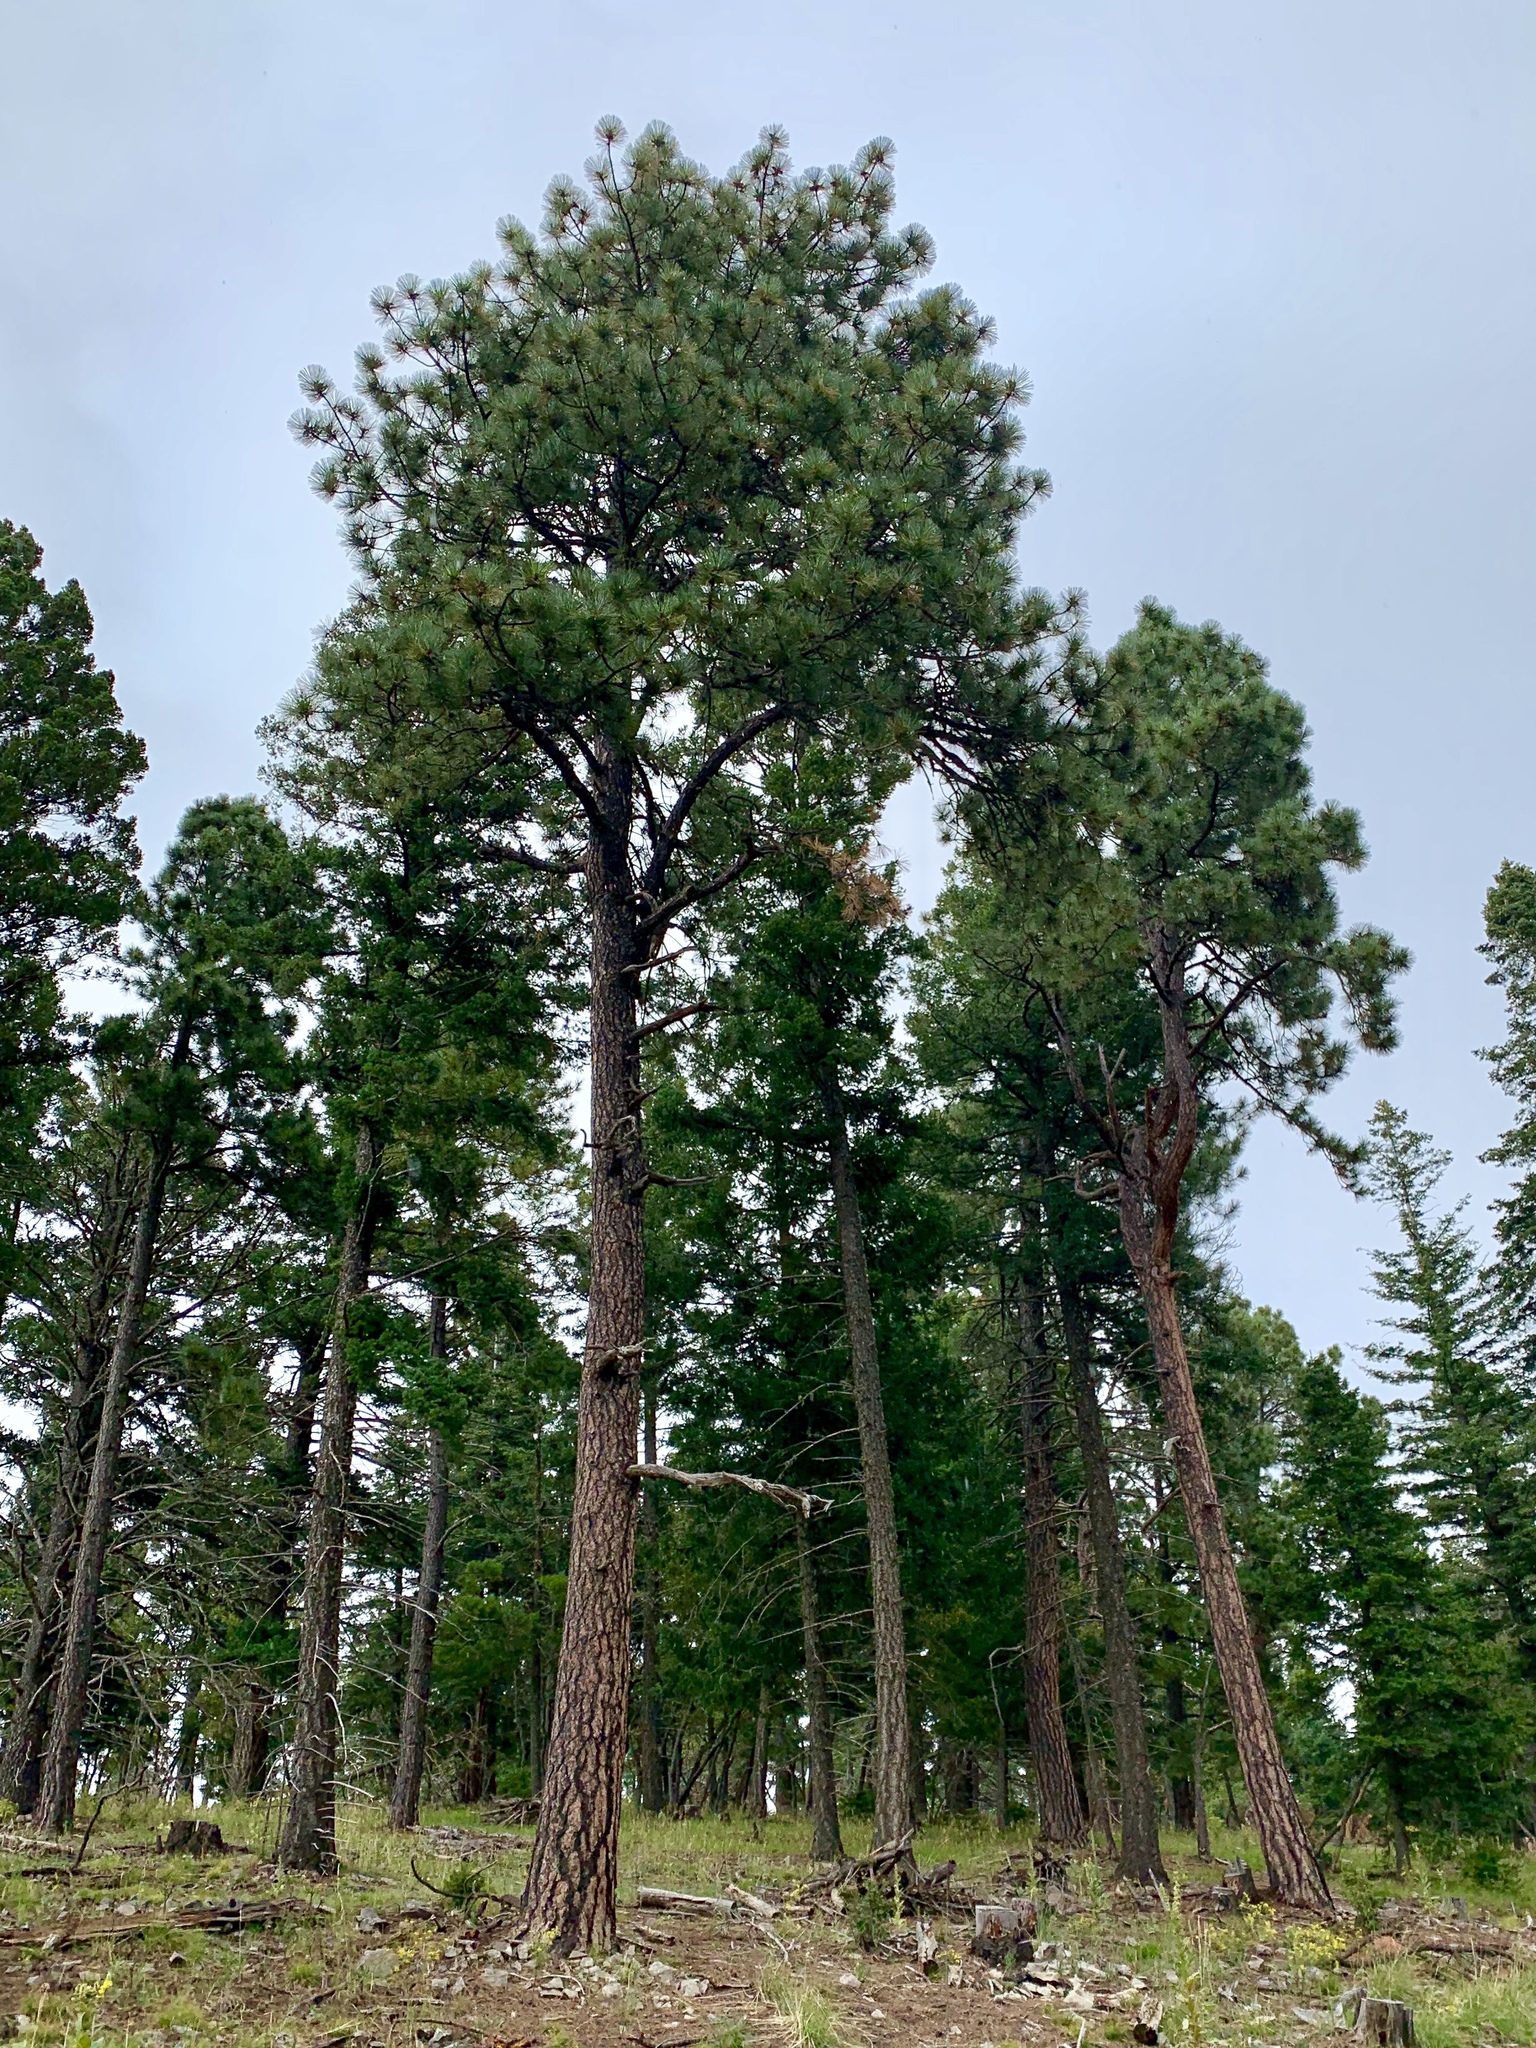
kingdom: Plantae
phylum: Tracheophyta
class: Pinopsida
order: Pinales
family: Pinaceae
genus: Pinus
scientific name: Pinus ponderosa
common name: Western yellow-pine
